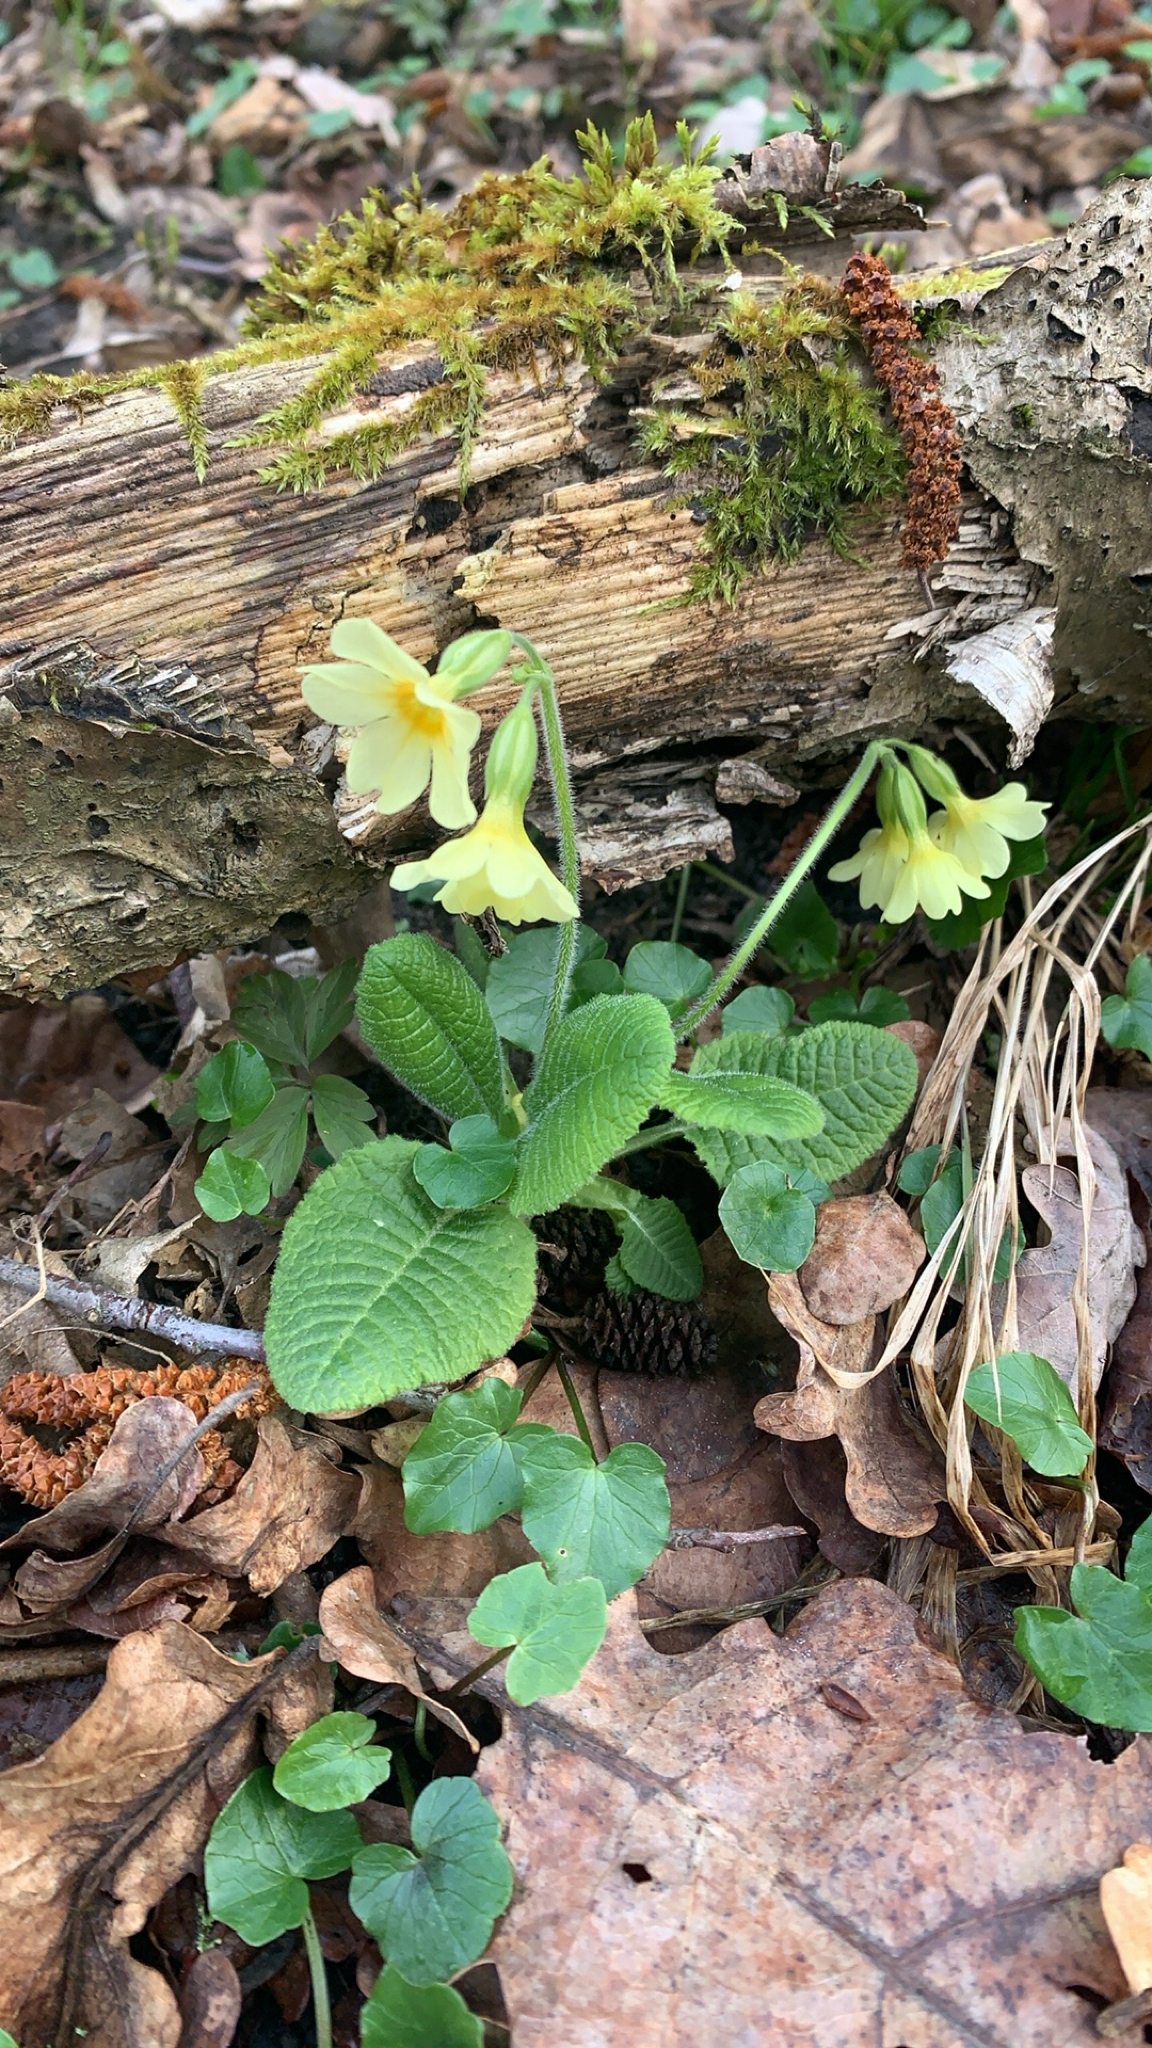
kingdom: Plantae
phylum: Tracheophyta
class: Magnoliopsida
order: Ericales
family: Primulaceae
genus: Primula
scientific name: Primula elatior
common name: Oxlip
